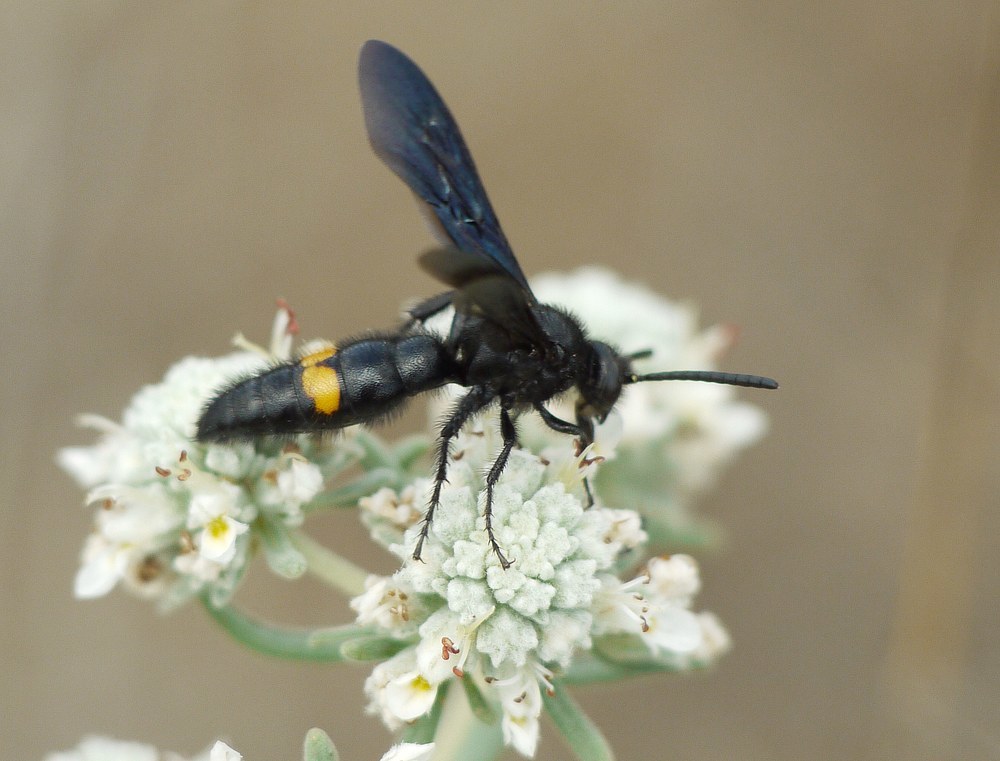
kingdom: Animalia
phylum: Arthropoda
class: Insecta
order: Hymenoptera
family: Scoliidae
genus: Scolia
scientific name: Scolia fallax
